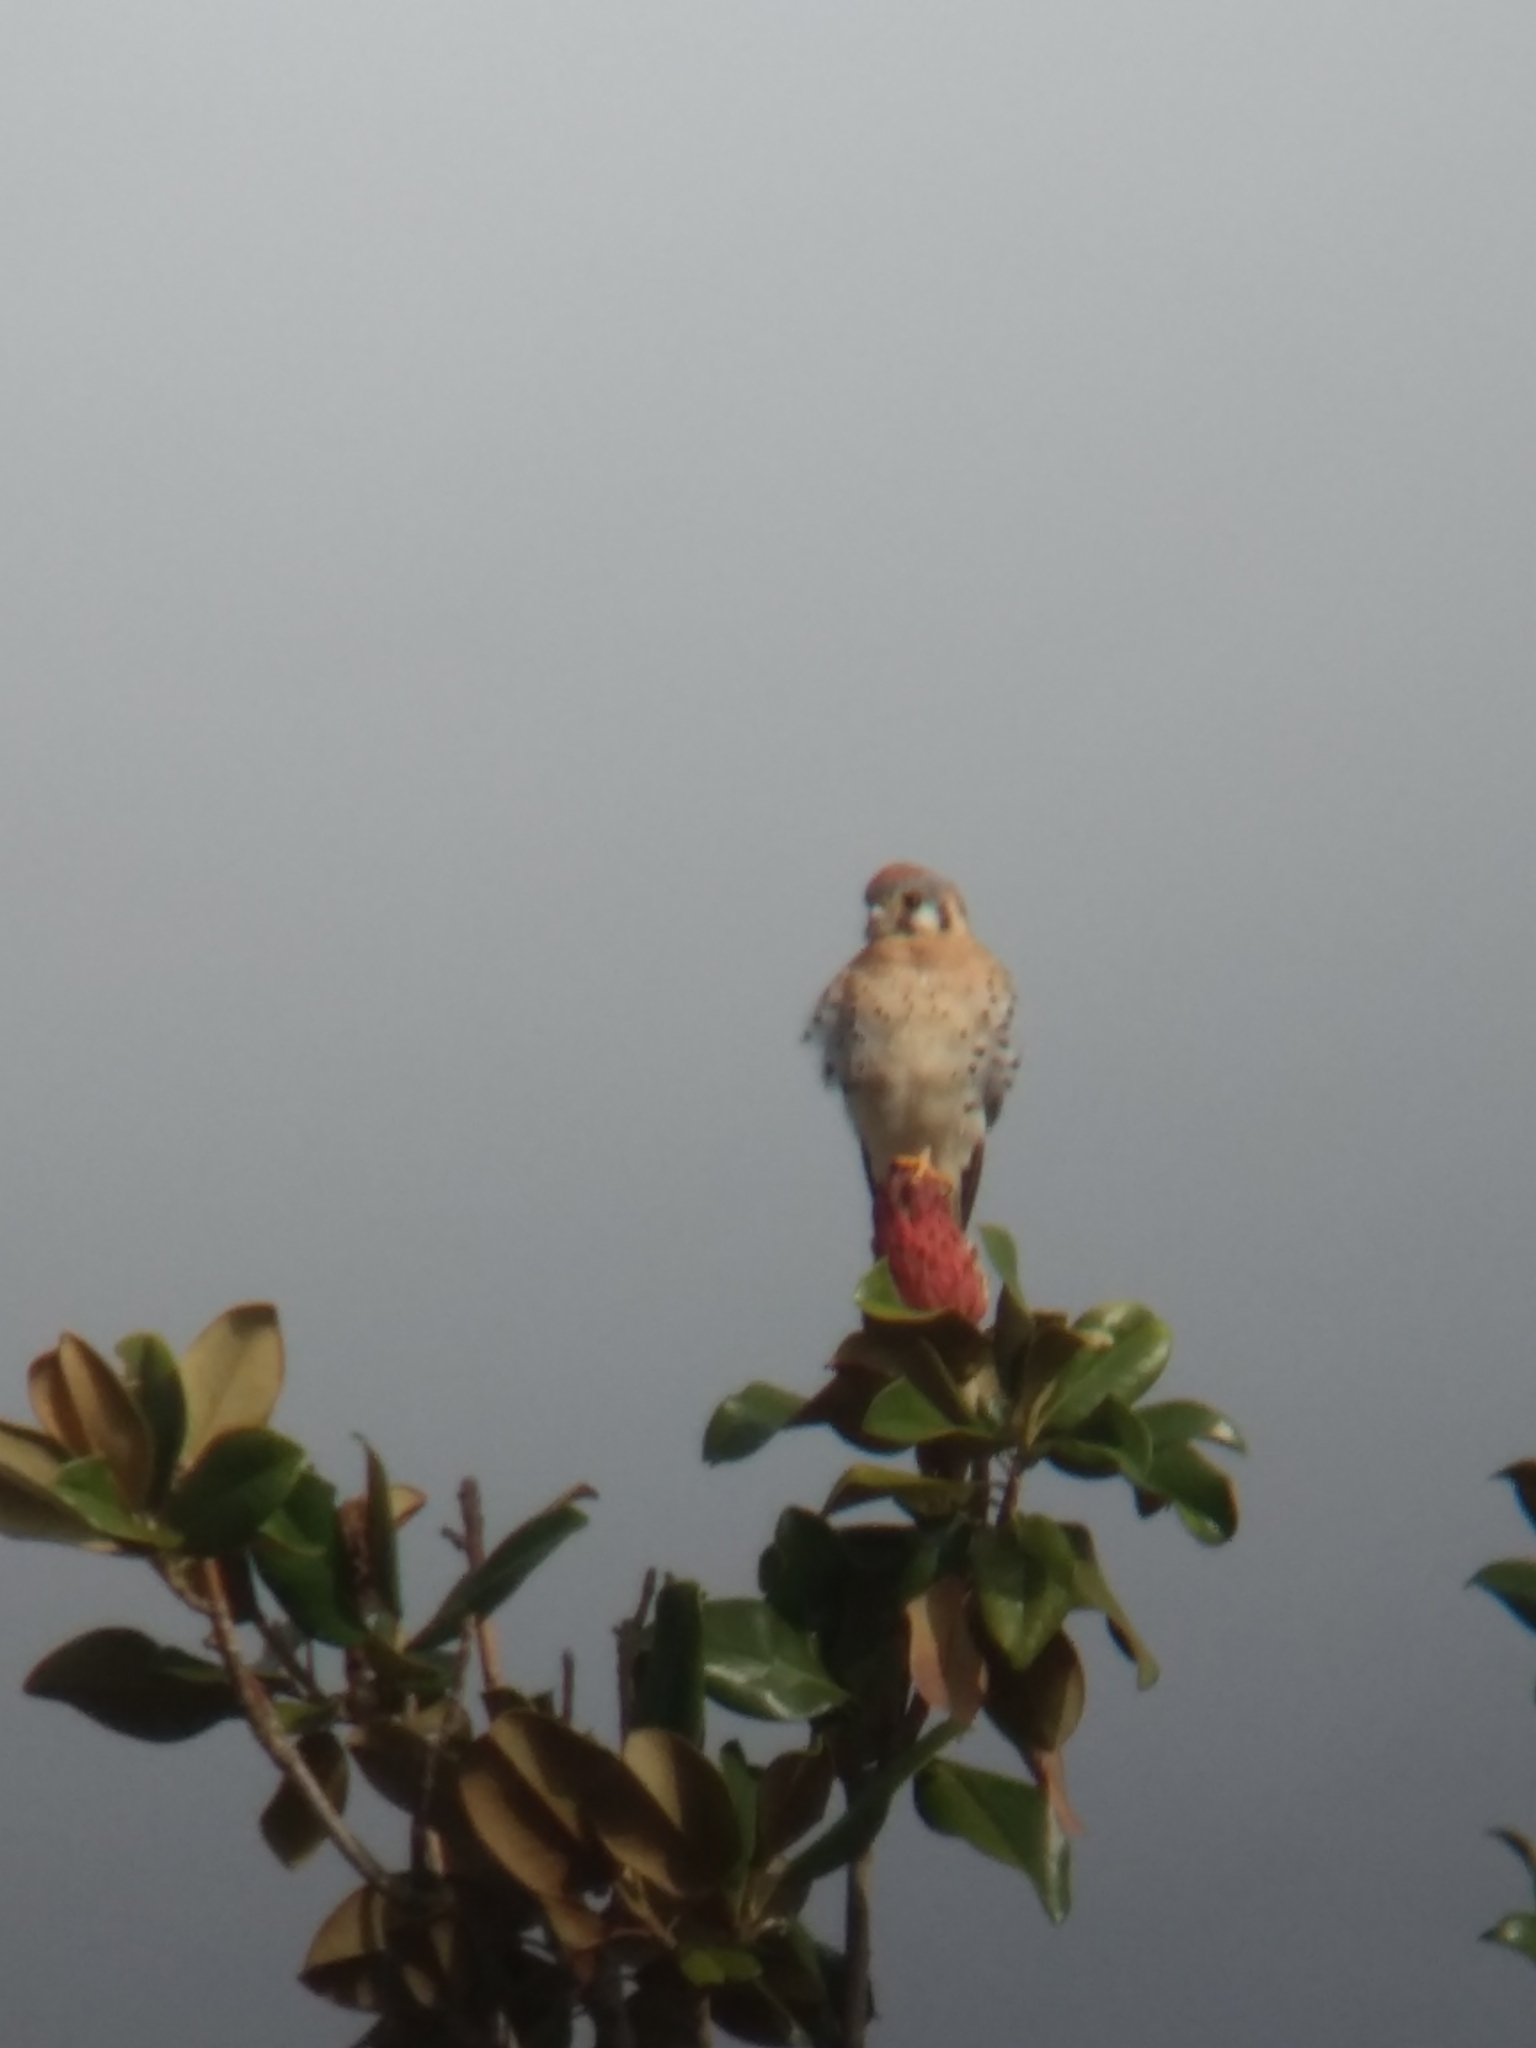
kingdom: Animalia
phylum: Chordata
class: Aves
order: Falconiformes
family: Falconidae
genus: Falco
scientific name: Falco sparverius
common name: American kestrel
